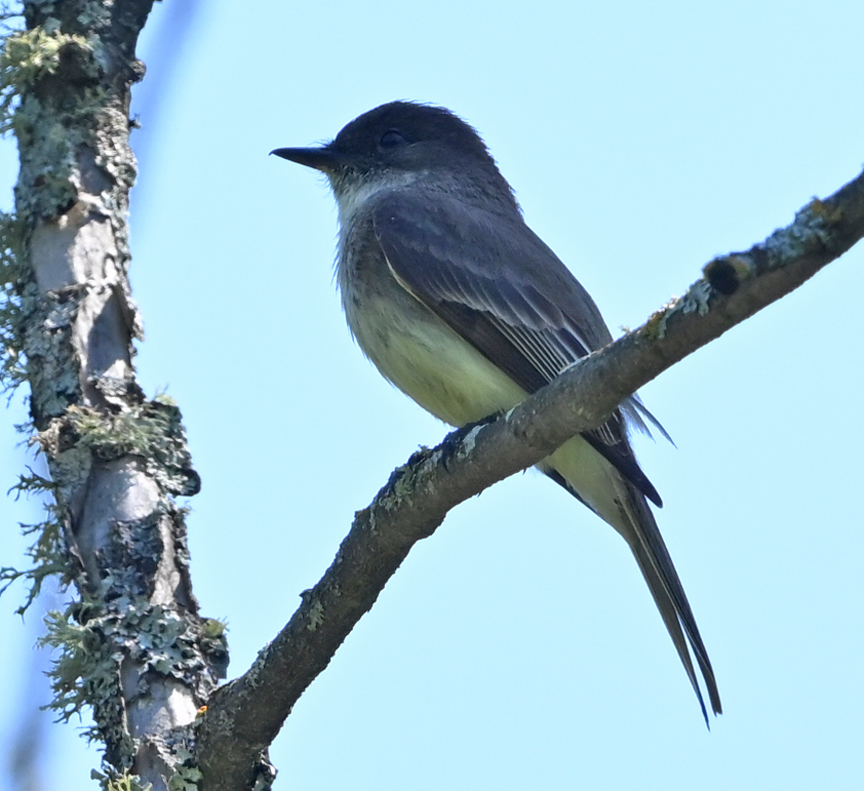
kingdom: Animalia
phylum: Chordata
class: Aves
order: Passeriformes
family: Tyrannidae
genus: Sayornis
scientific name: Sayornis phoebe
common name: Eastern phoebe
